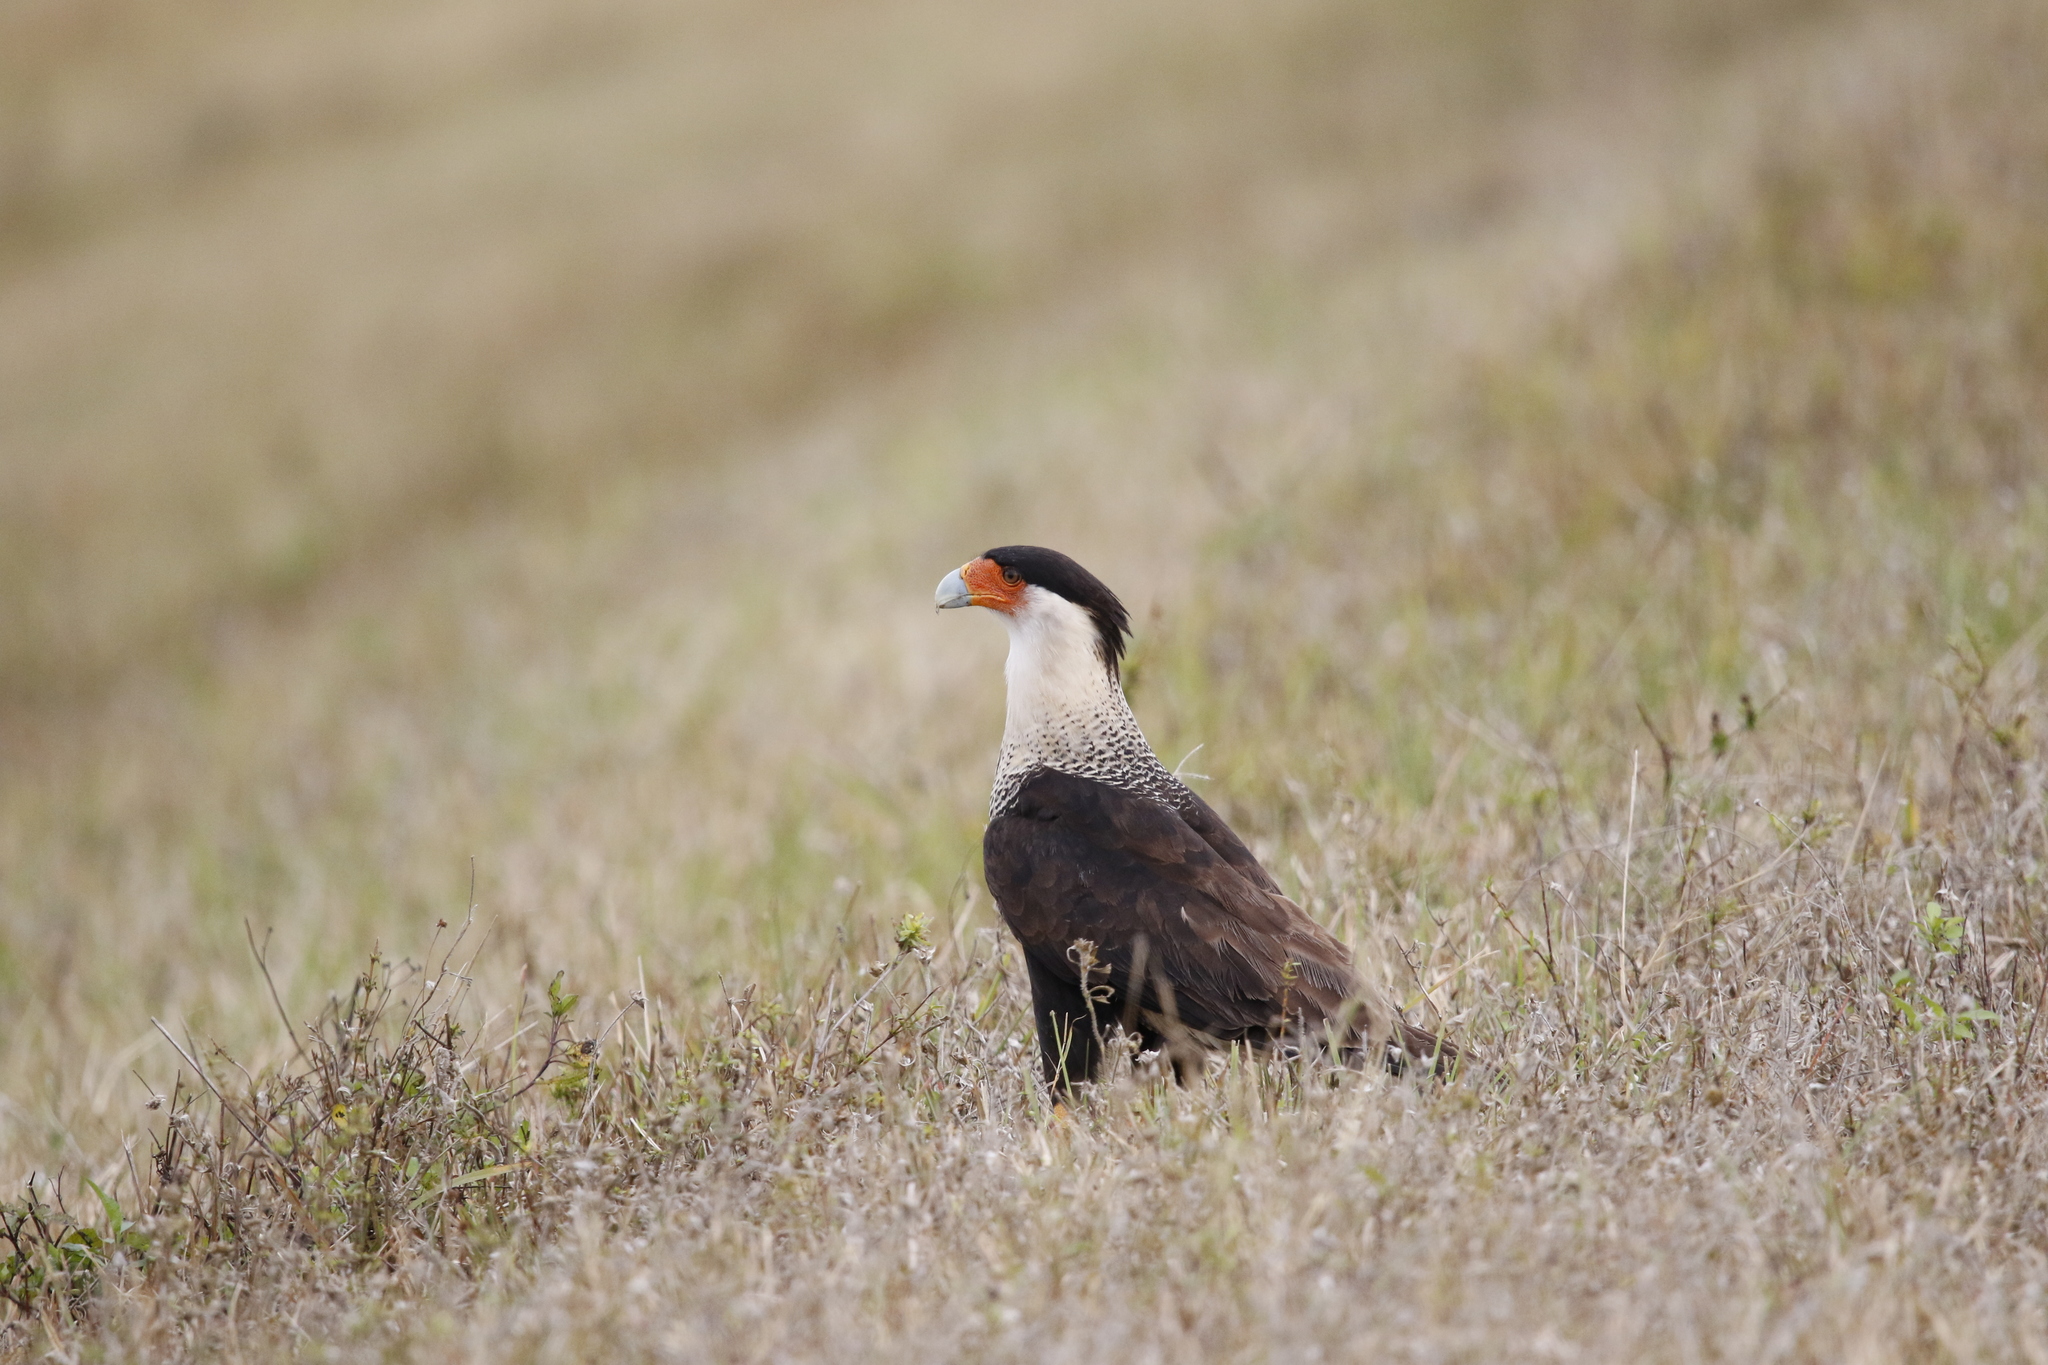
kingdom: Animalia
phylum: Chordata
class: Aves
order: Falconiformes
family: Falconidae
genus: Caracara
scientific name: Caracara plancus
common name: Southern caracara
